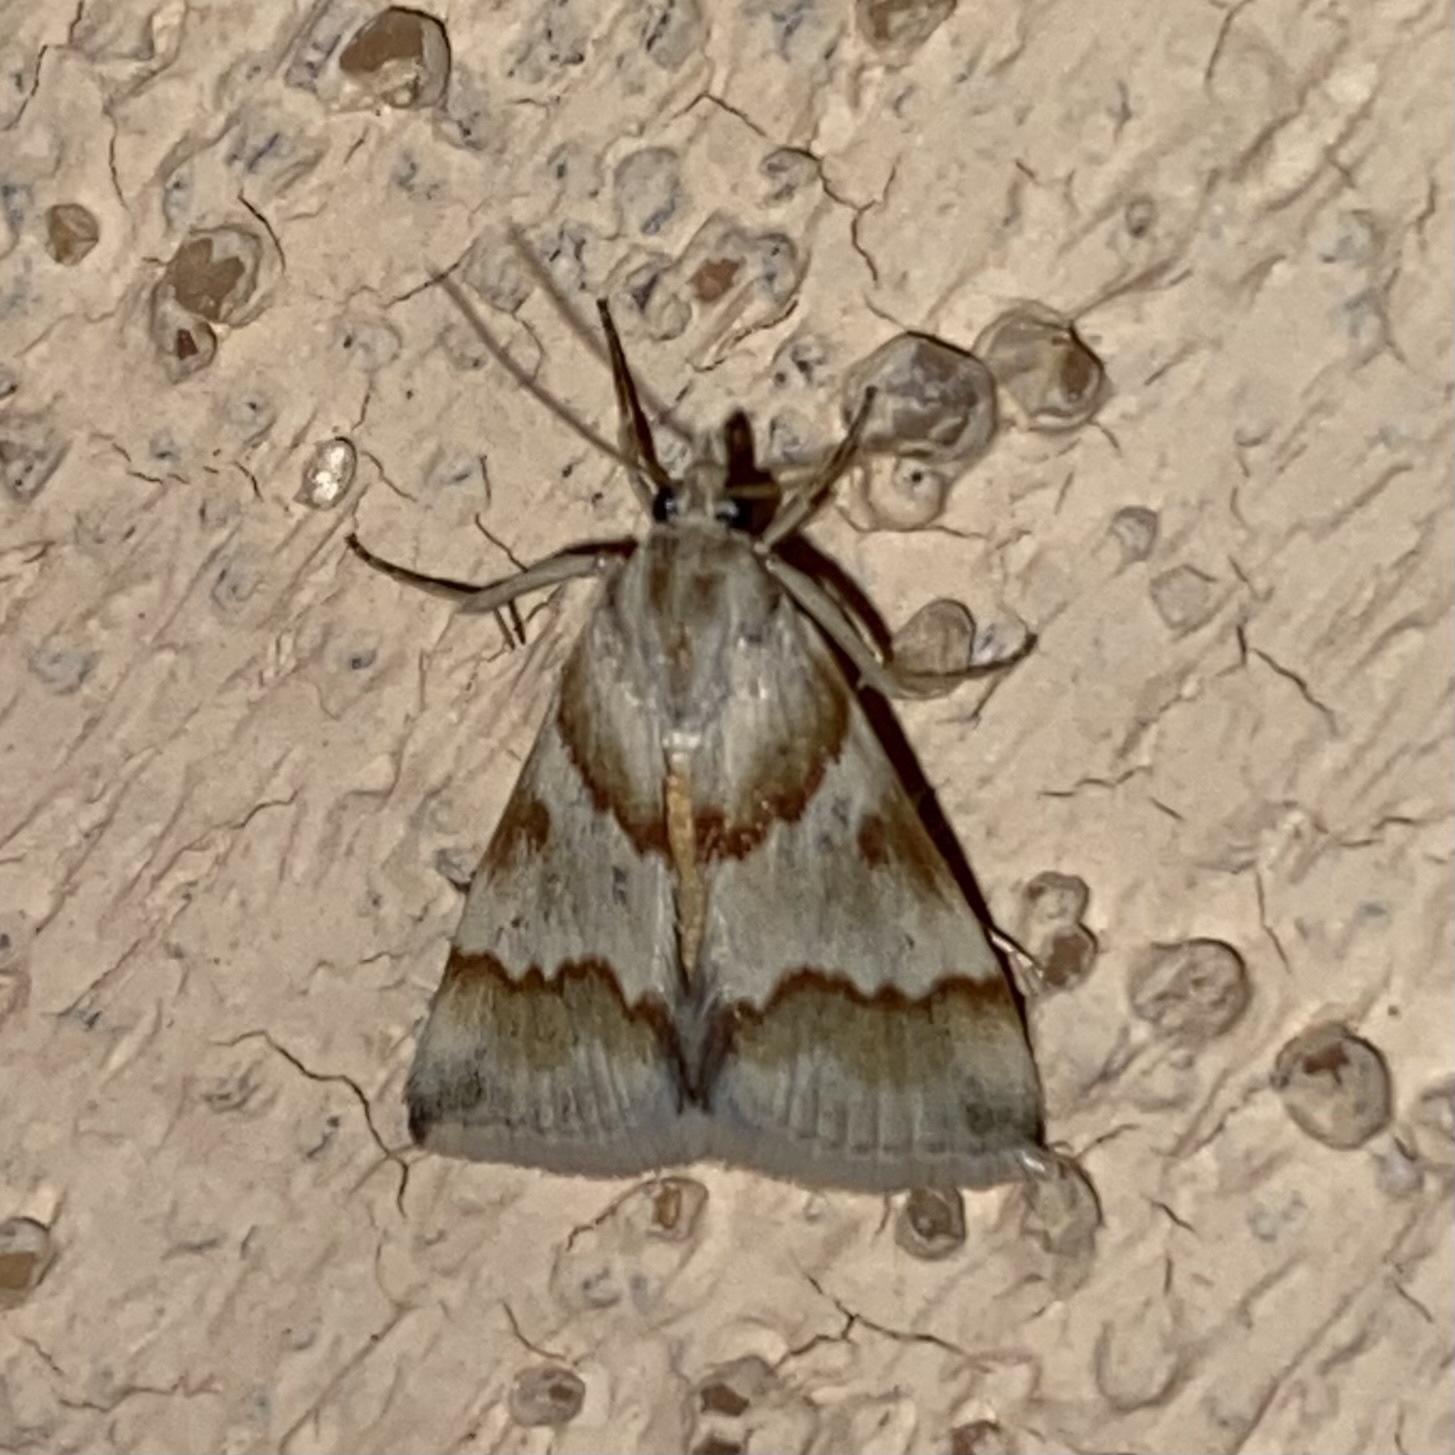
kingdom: Animalia
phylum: Arthropoda
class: Insecta
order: Lepidoptera
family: Crambidae
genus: Noctuelia
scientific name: Noctuelia Mimoschinia rufofascialis
